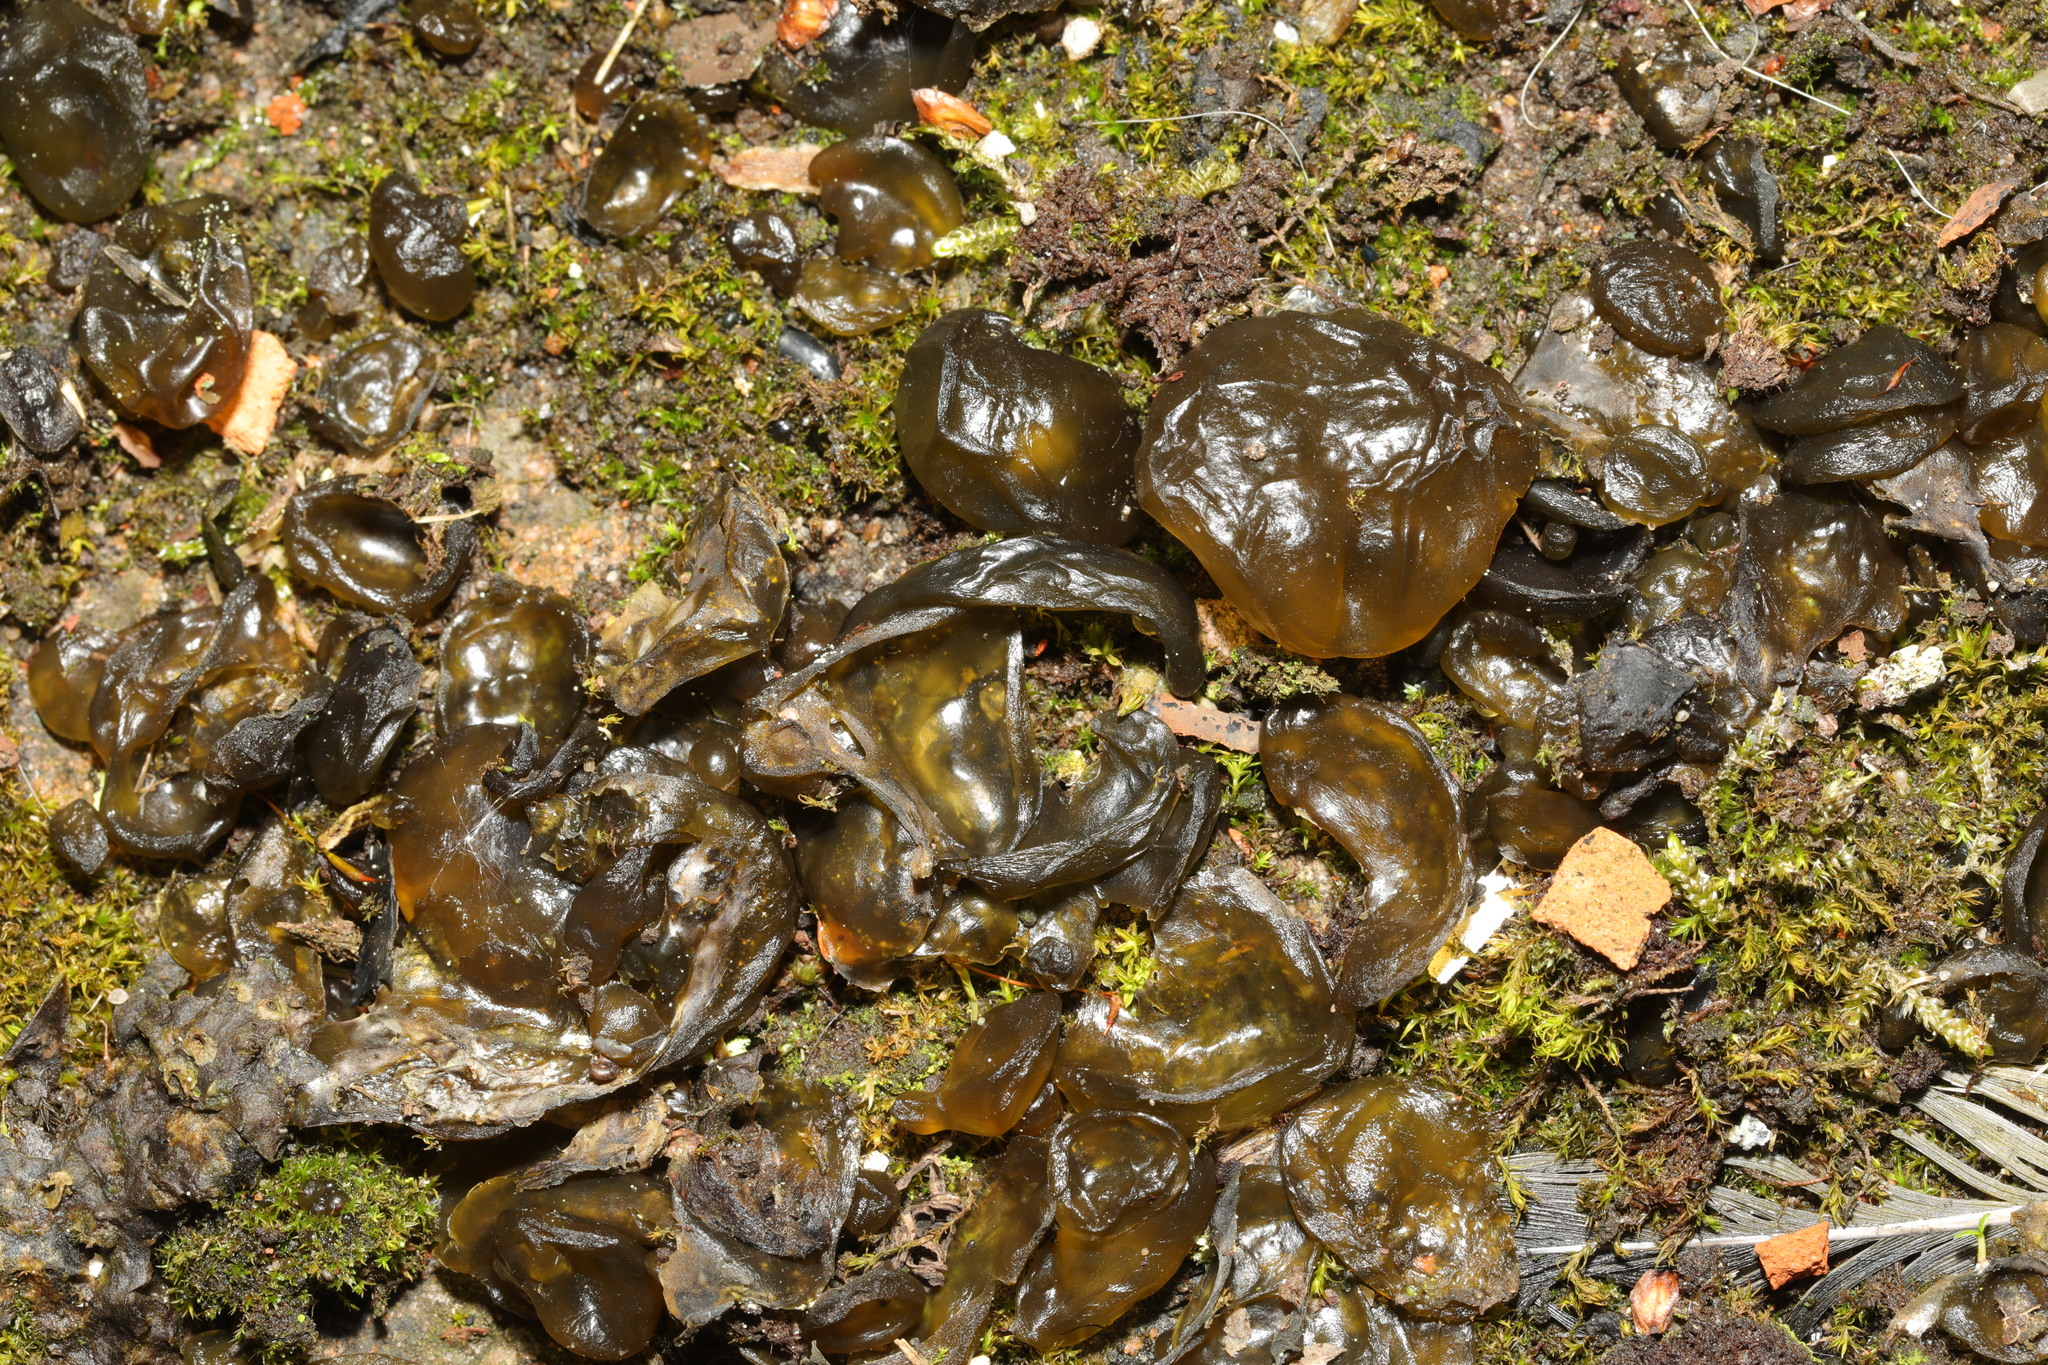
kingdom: Bacteria
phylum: Cyanobacteria
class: Cyanobacteriia
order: Cyanobacteriales
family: Nostocaceae
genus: Nostoc
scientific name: Nostoc commune
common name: Star jelly
